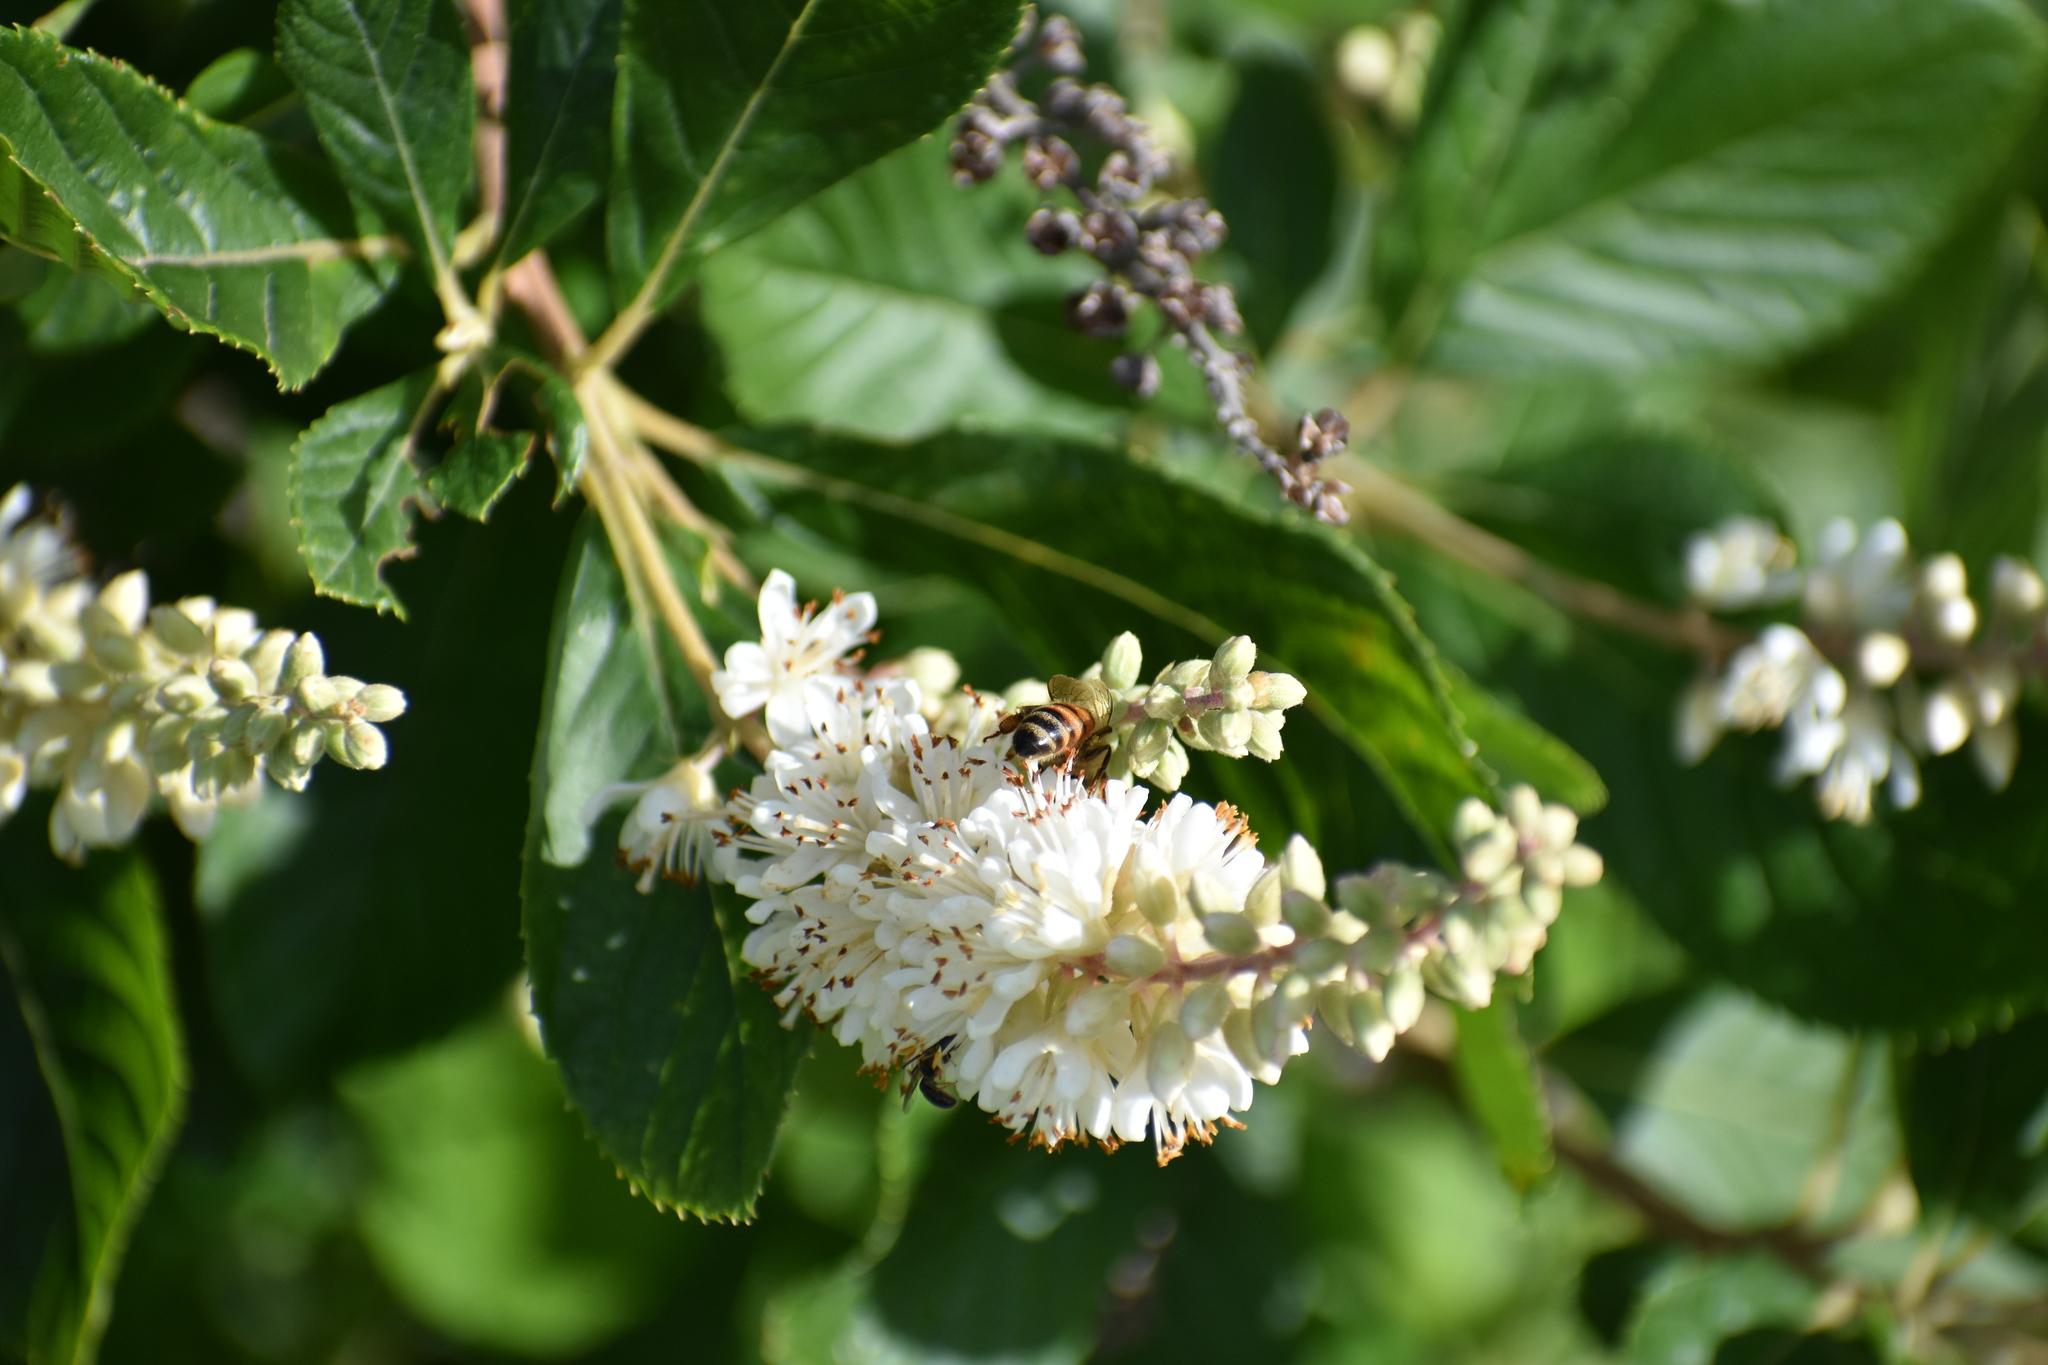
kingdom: Animalia
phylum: Arthropoda
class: Insecta
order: Hymenoptera
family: Apidae
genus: Apis
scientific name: Apis mellifera
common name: Honey bee
